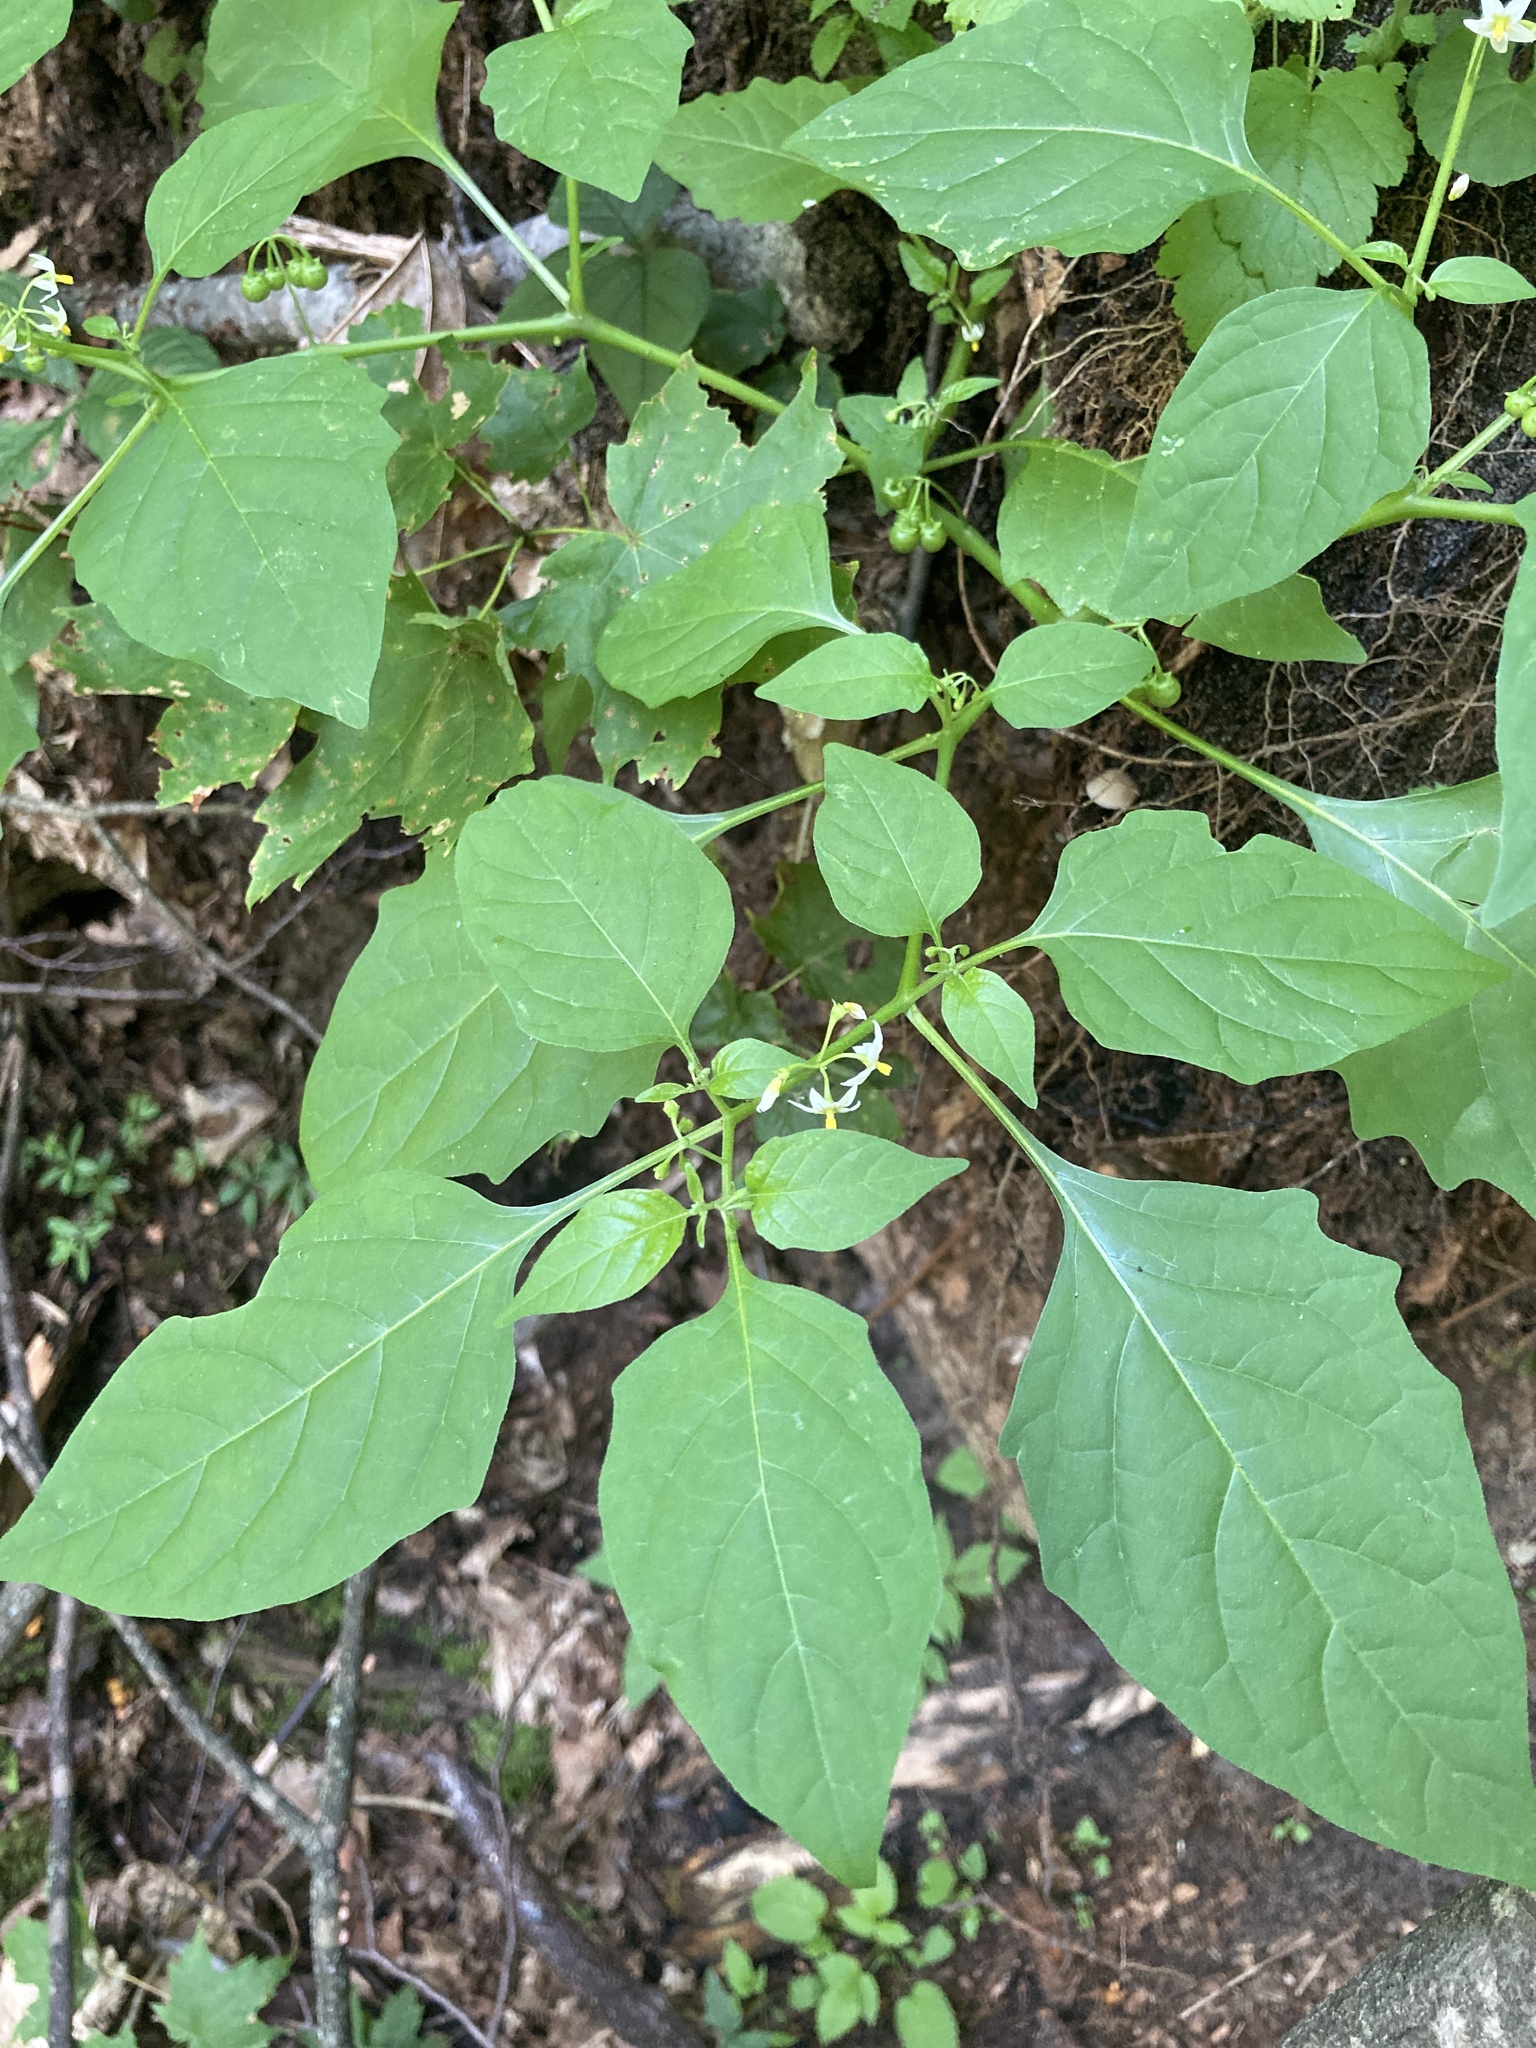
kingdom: Plantae
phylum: Tracheophyta
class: Magnoliopsida
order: Solanales
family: Solanaceae
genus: Solanum
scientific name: Solanum emulans
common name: Eastern black nightshade
